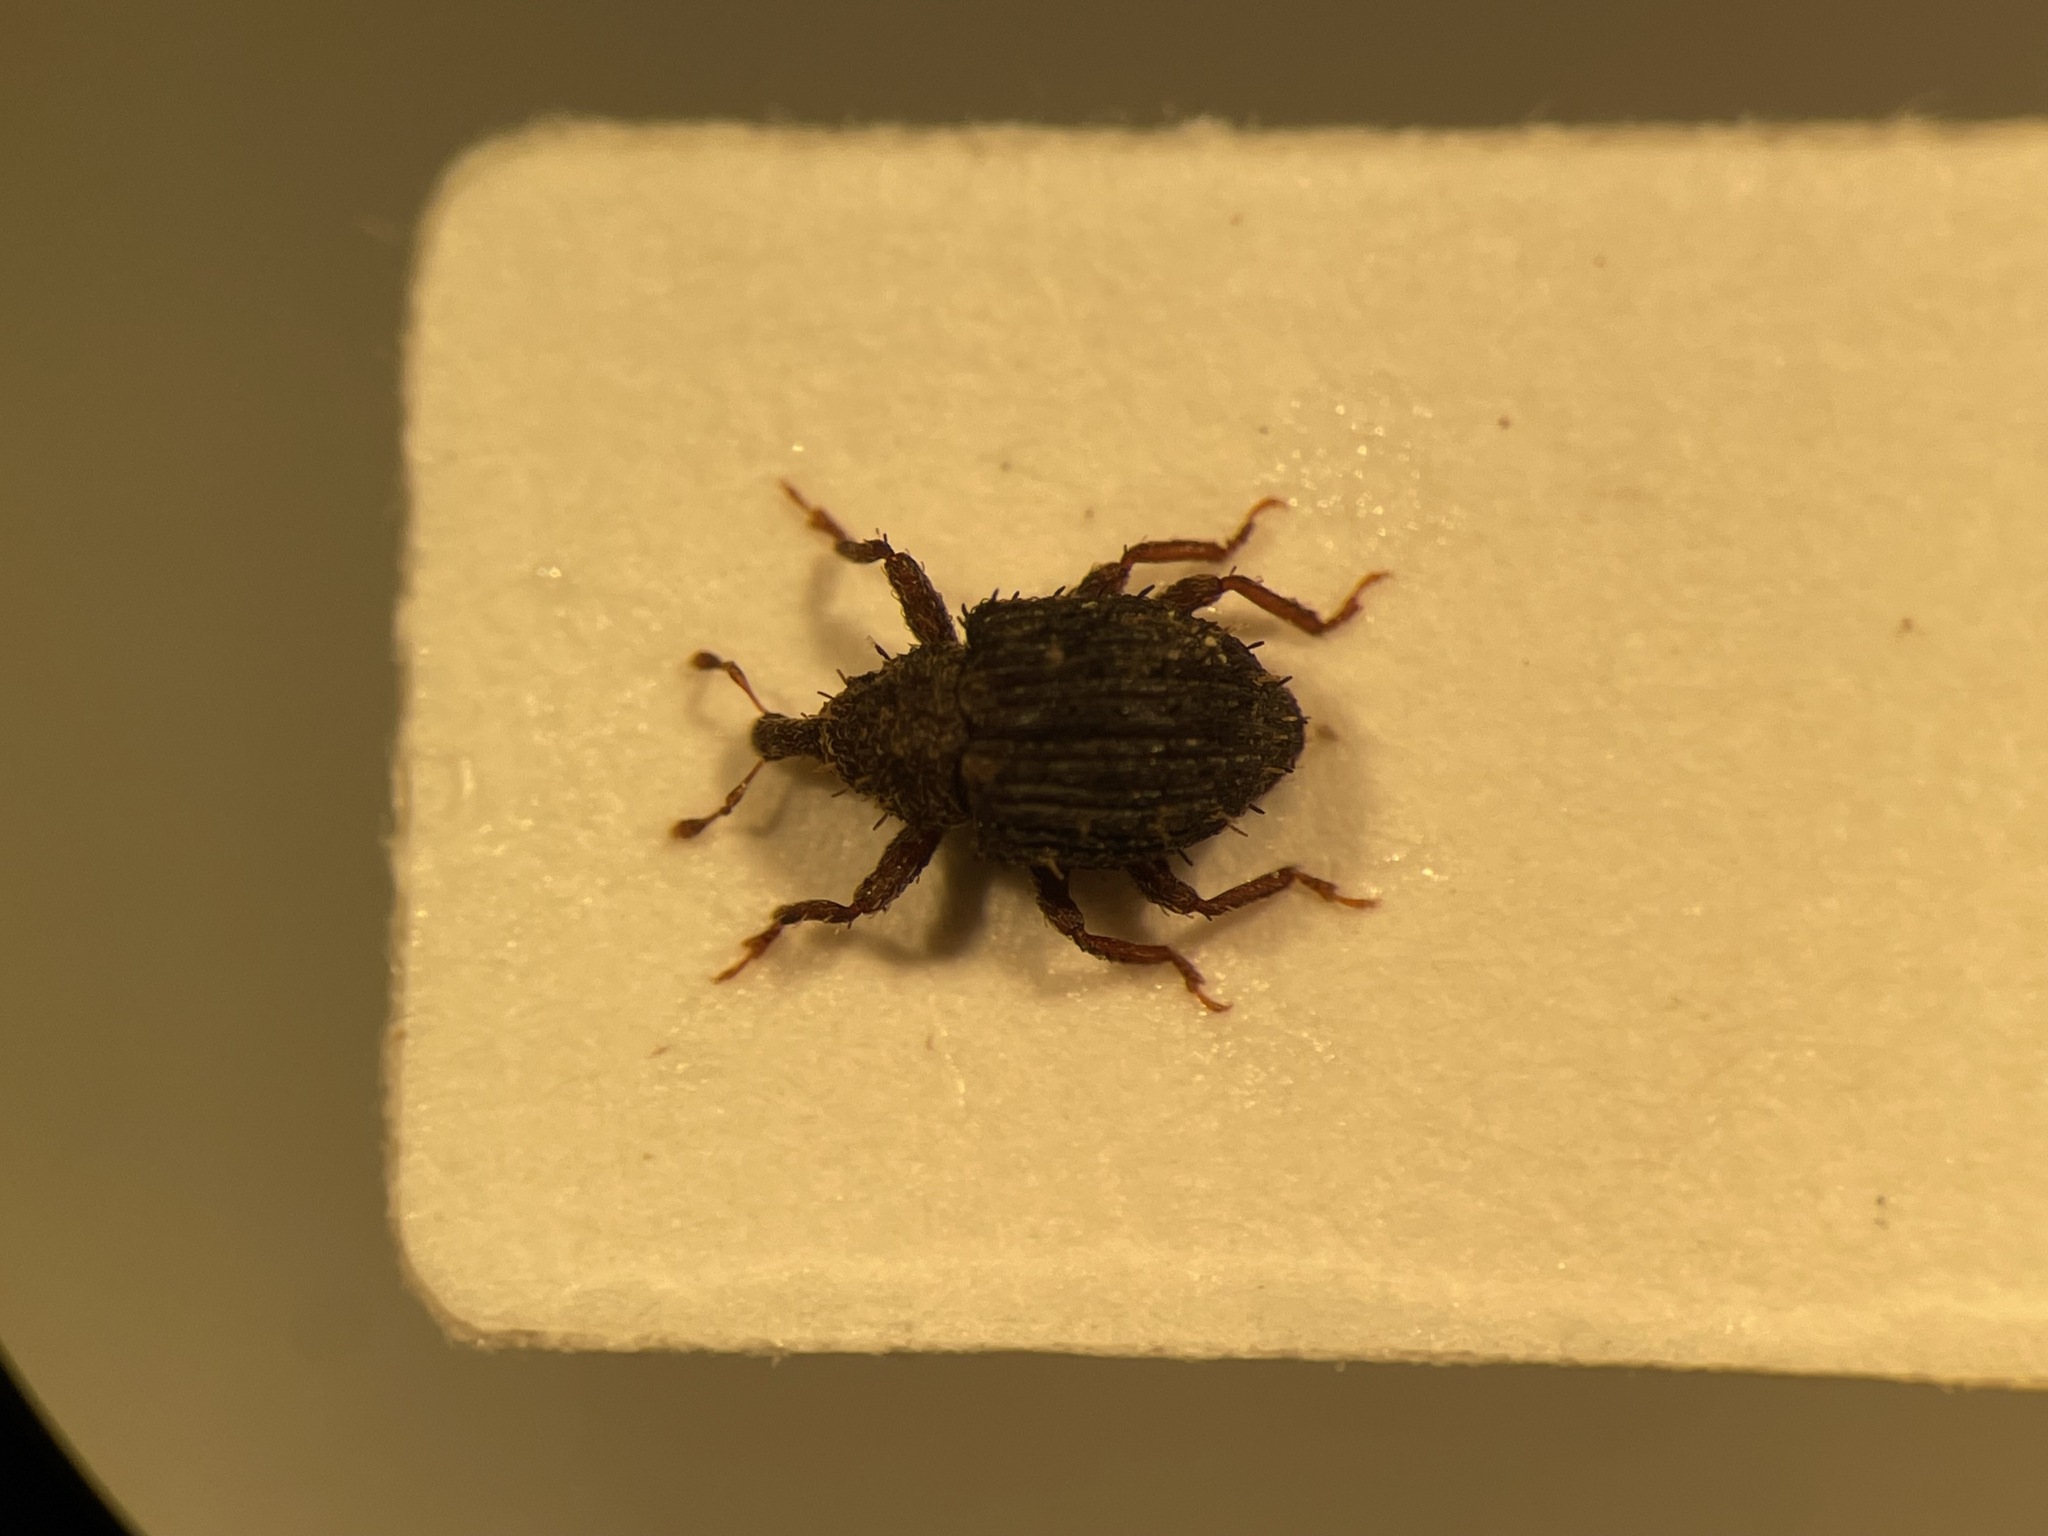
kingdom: Animalia
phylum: Arthropoda
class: Insecta
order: Coleoptera
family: Curculionidae
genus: Microhyus
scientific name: Microhyus setiger
